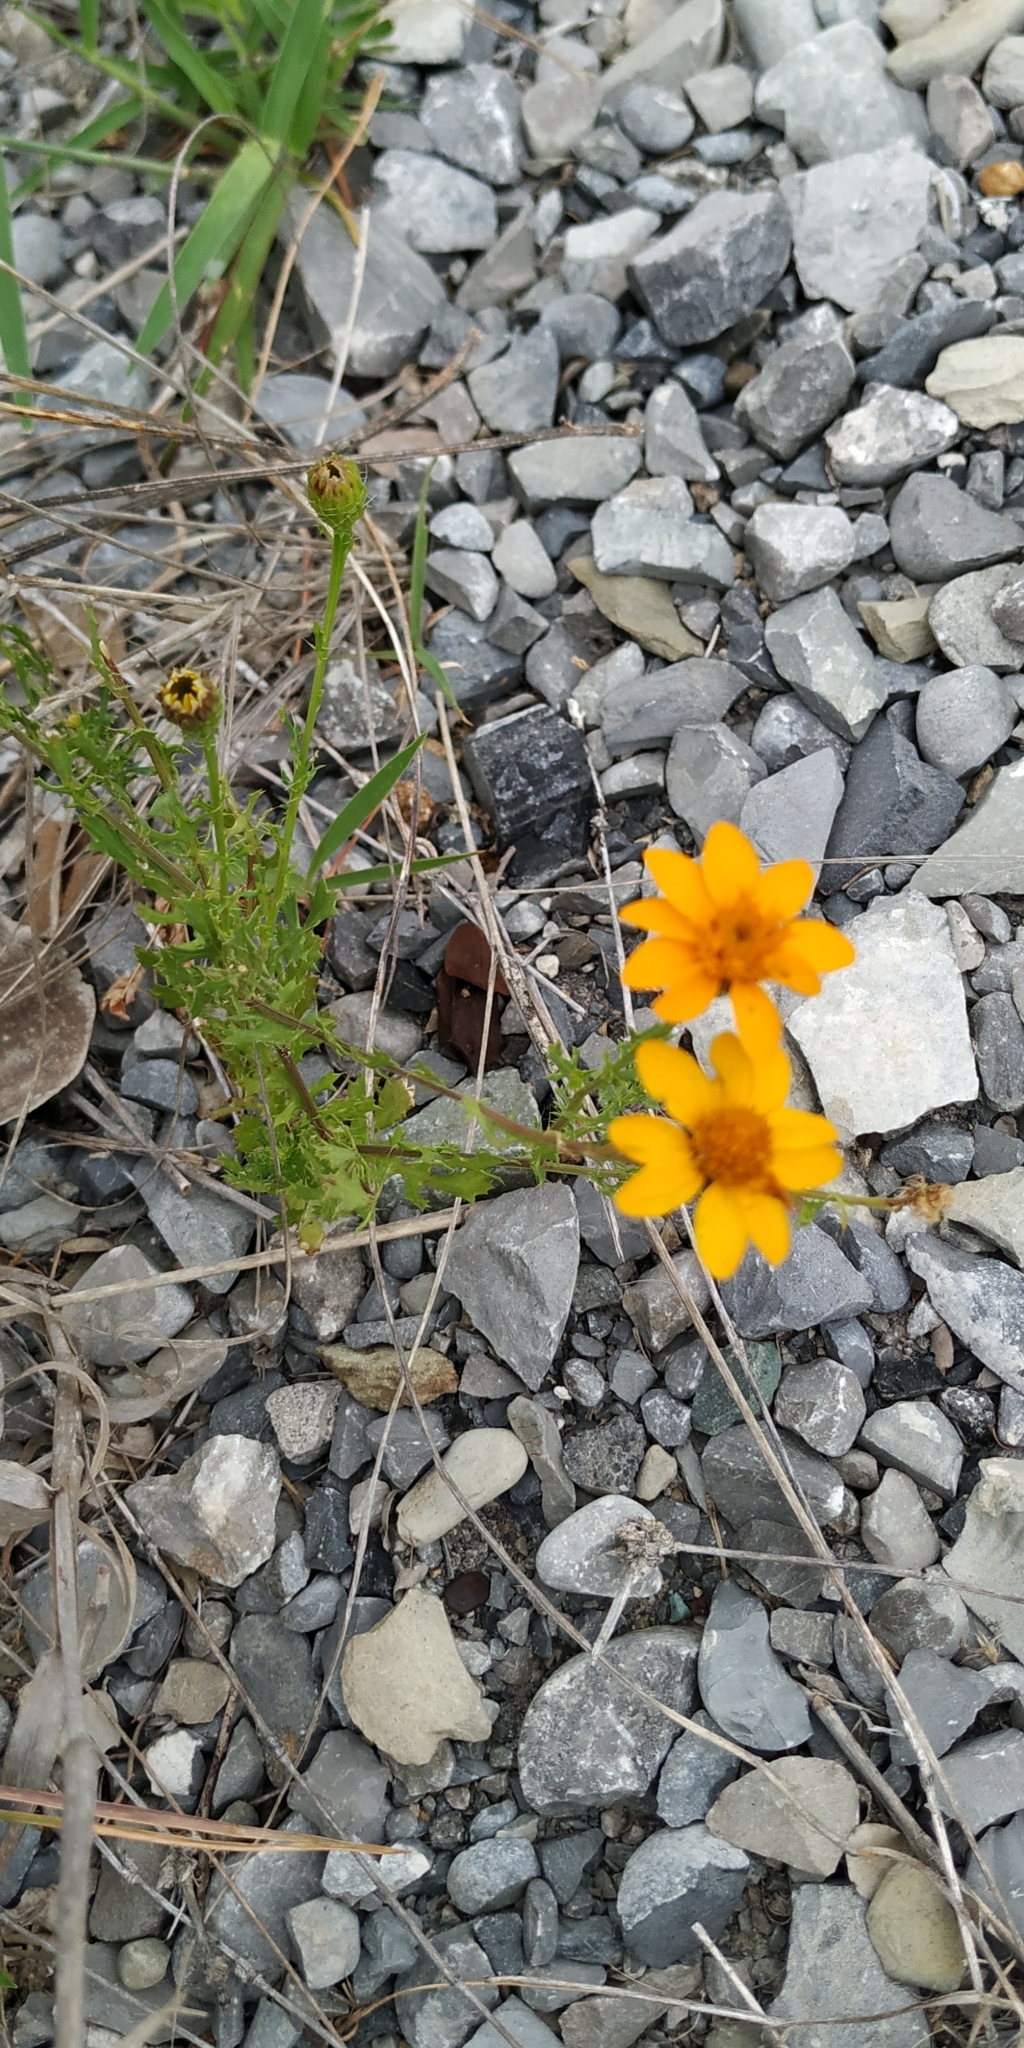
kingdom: Plantae
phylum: Tracheophyta
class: Magnoliopsida
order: Asterales
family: Asteraceae
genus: Adenophyllum
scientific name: Adenophyllum cancellatum
